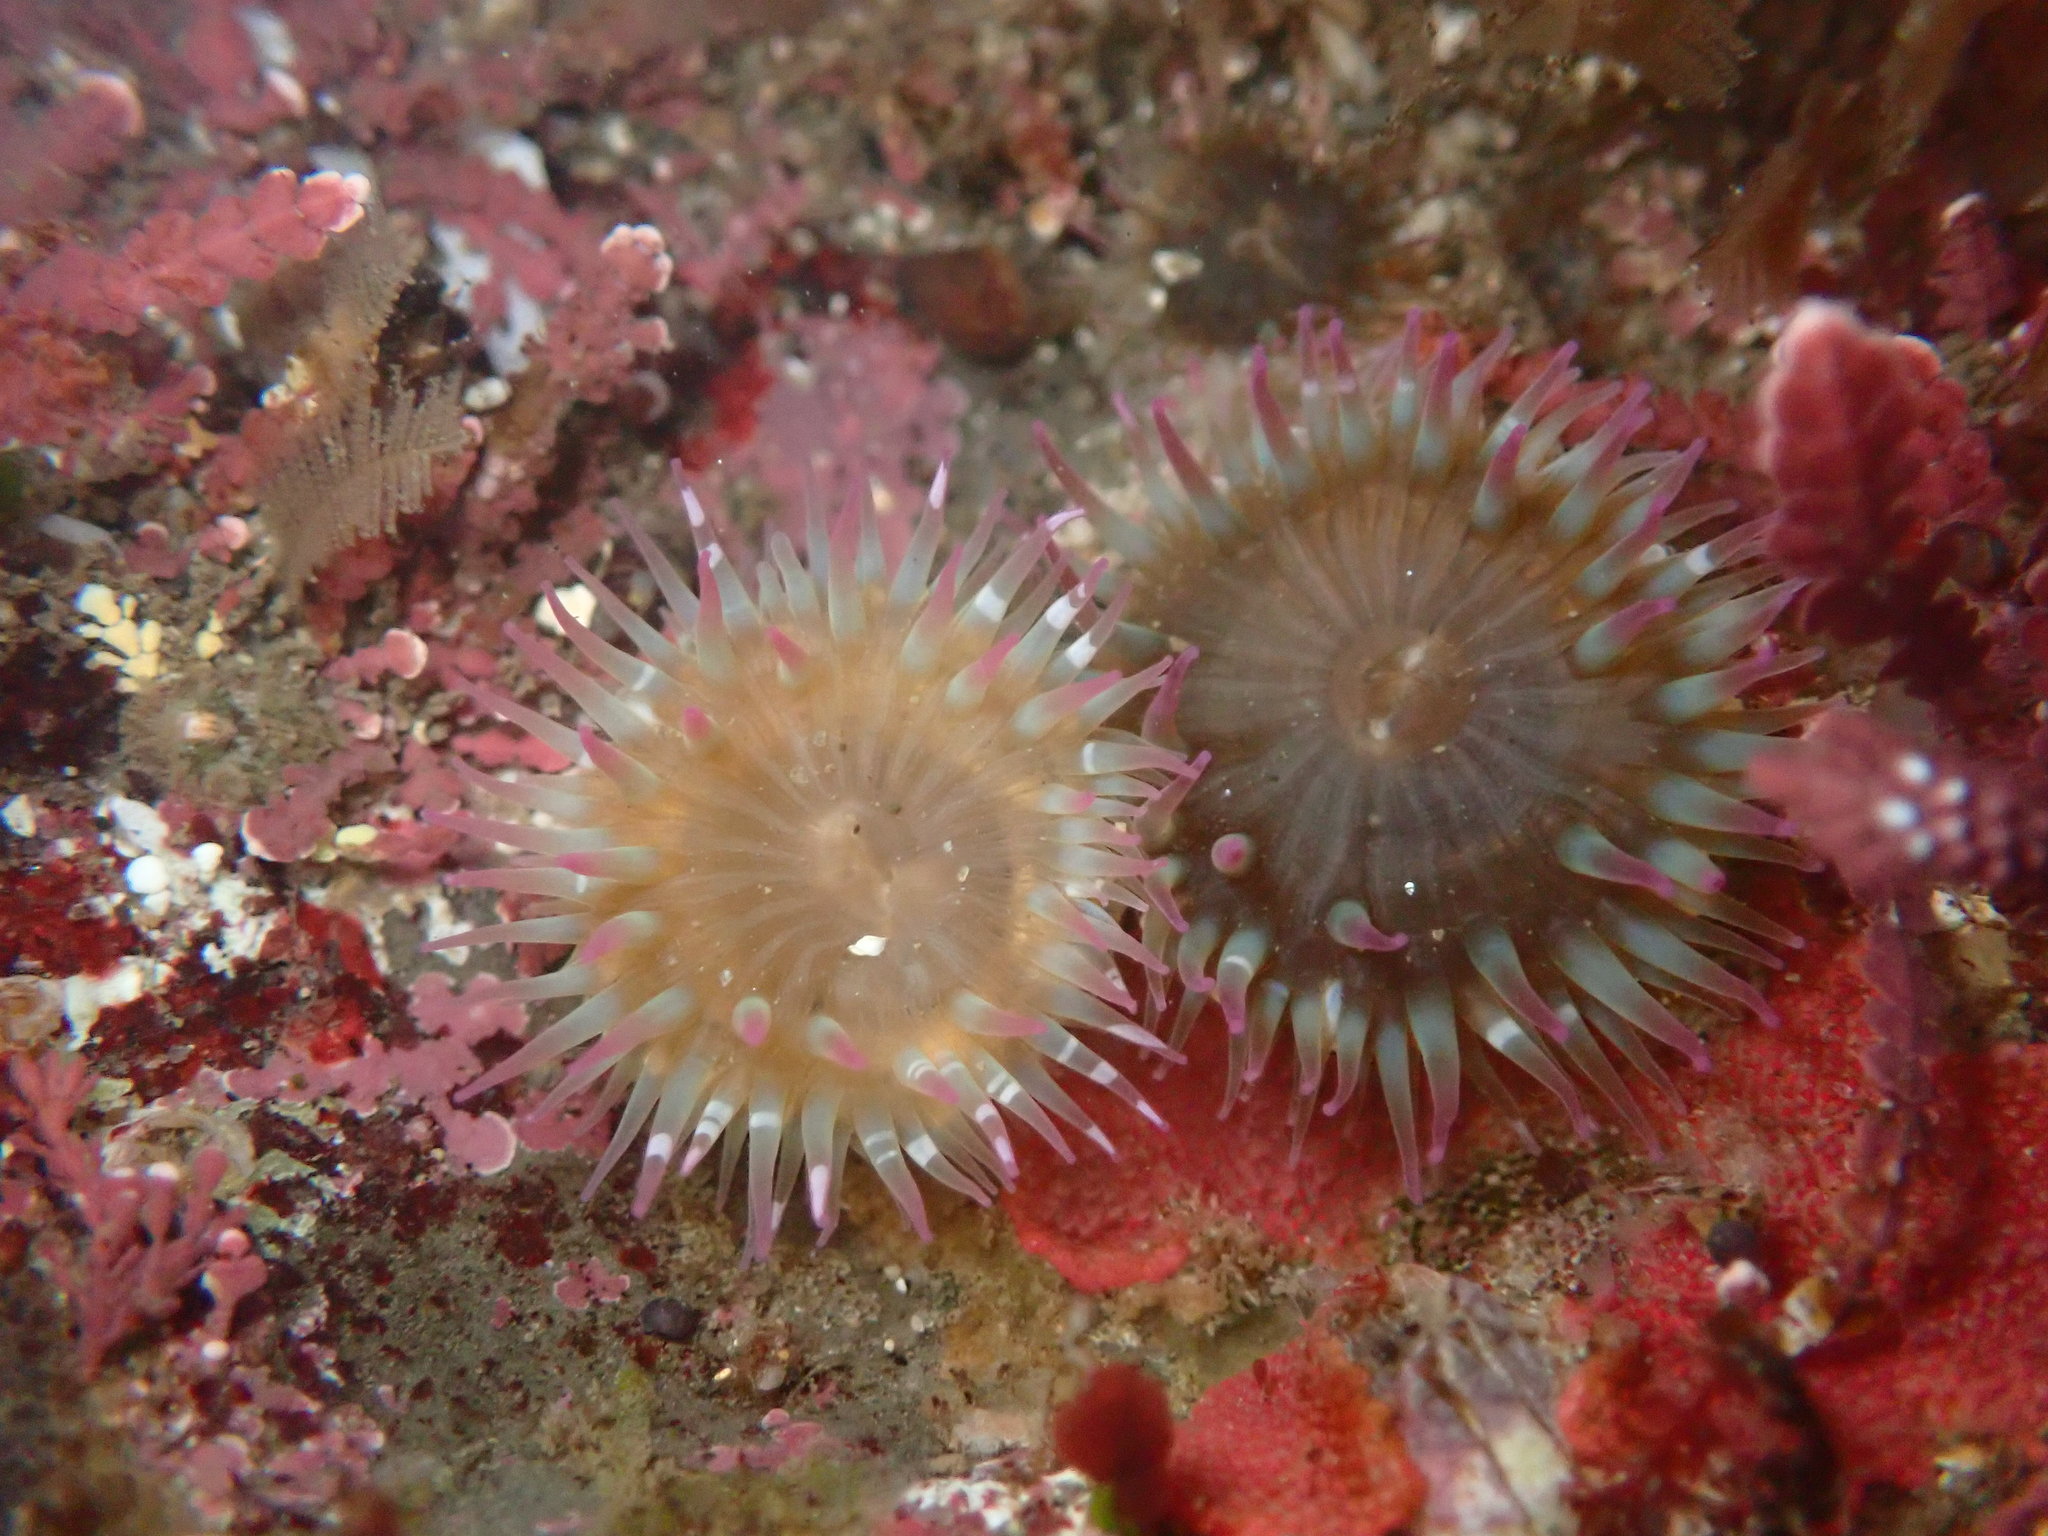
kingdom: Animalia
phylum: Cnidaria
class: Anthozoa
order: Actiniaria
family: Actiniidae
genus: Anthopleura
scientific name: Anthopleura elegantissima
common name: Clonal anemone
